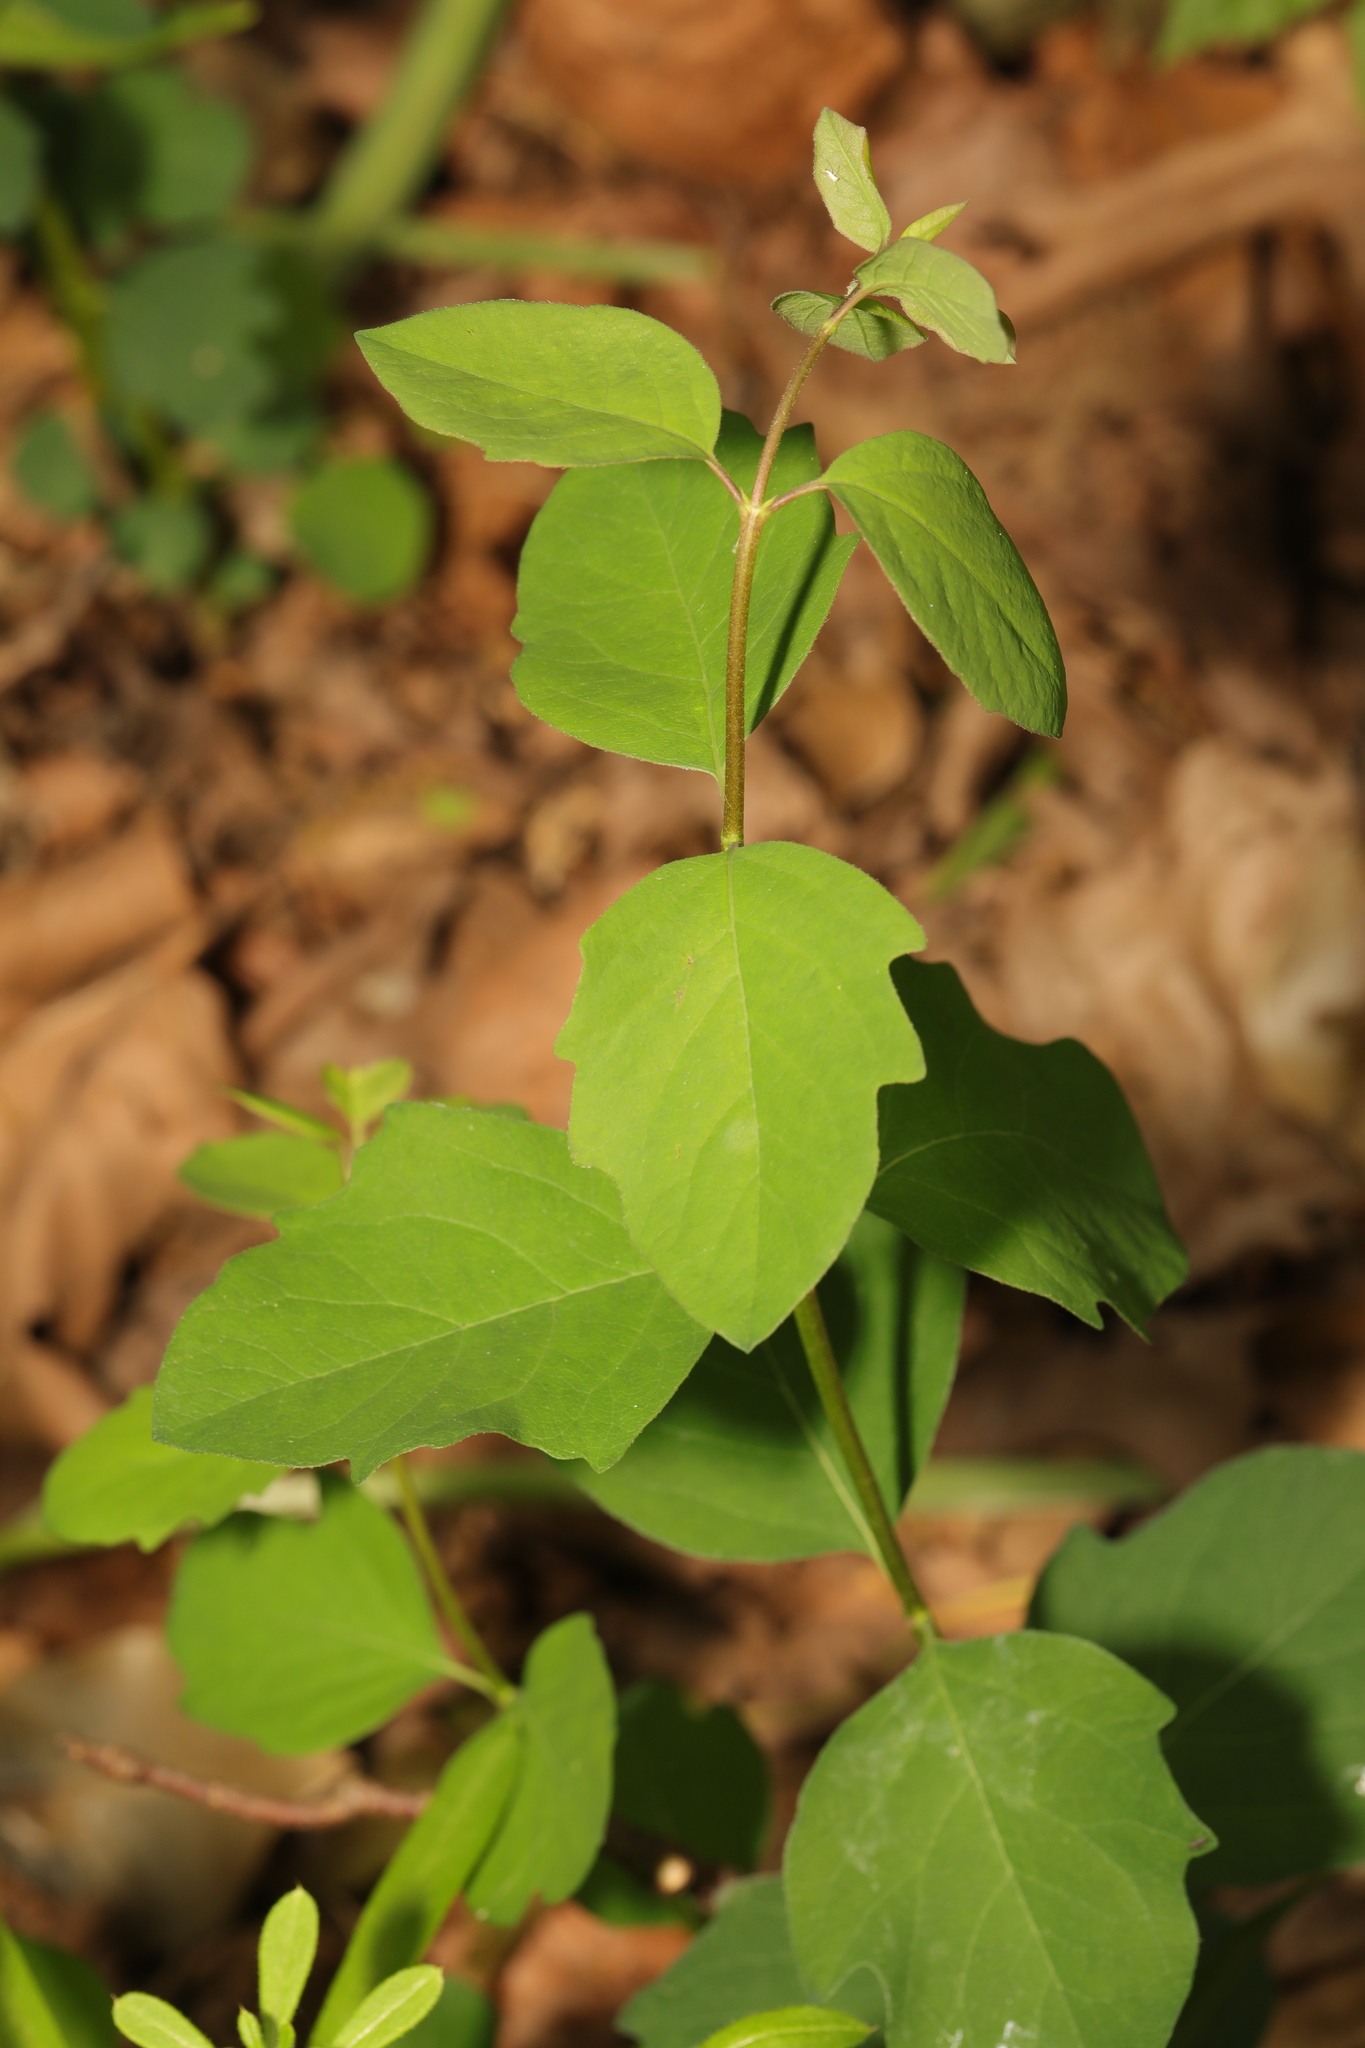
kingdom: Plantae
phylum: Tracheophyta
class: Magnoliopsida
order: Dipsacales
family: Caprifoliaceae
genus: Symphoricarpos
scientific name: Symphoricarpos albus
